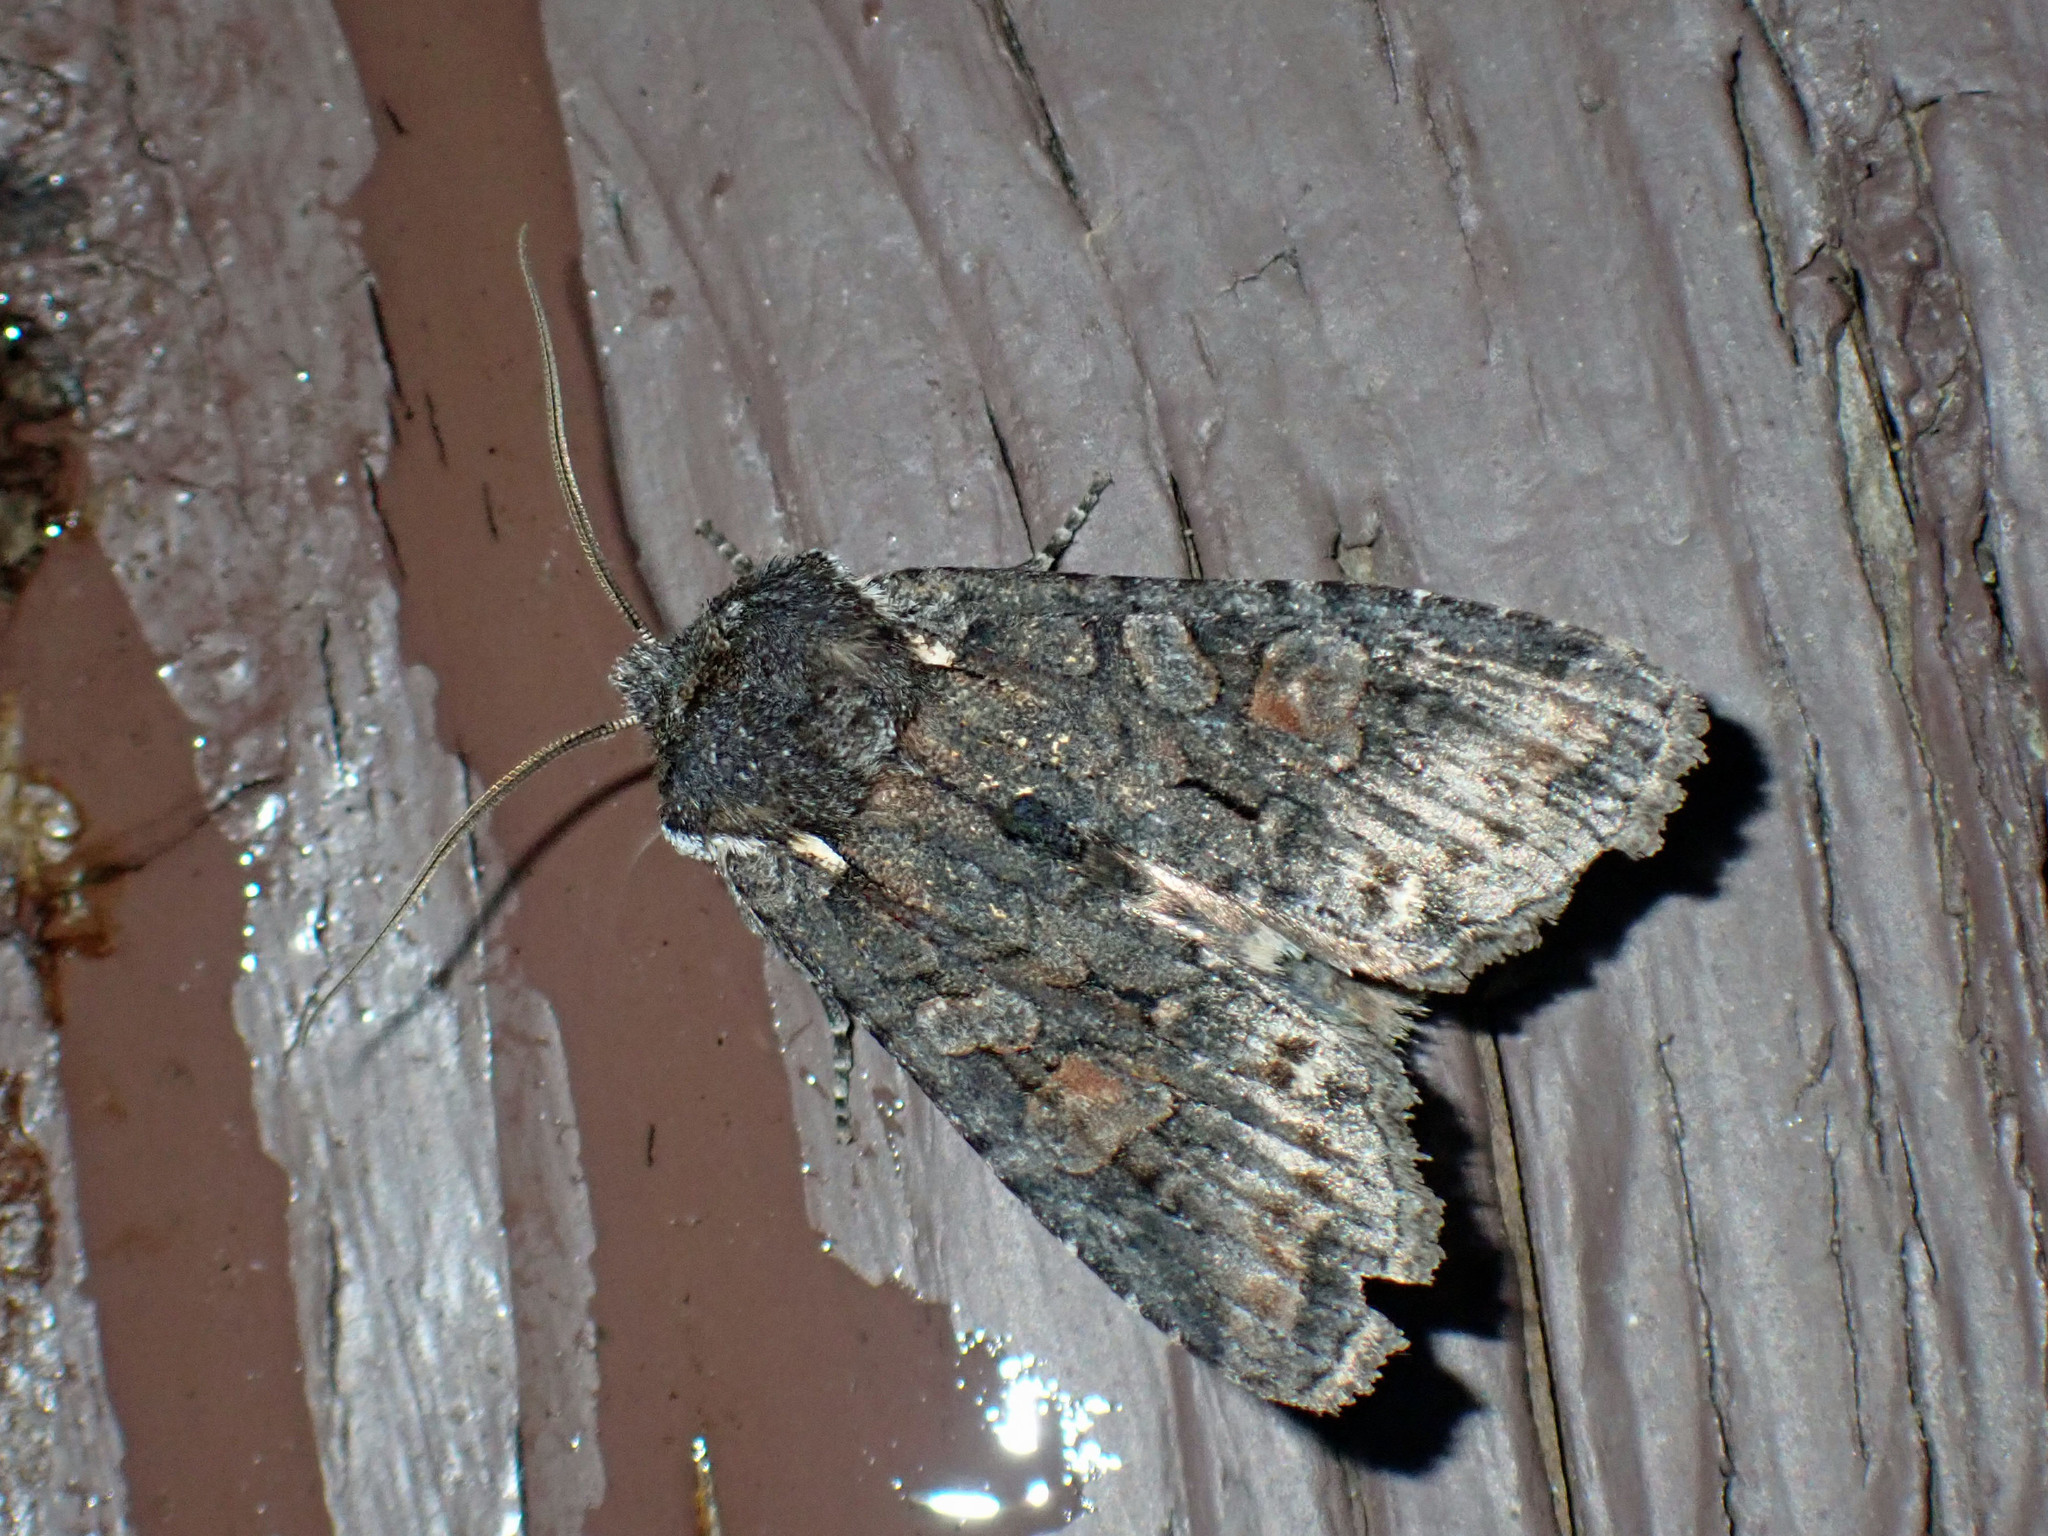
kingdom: Animalia
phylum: Arthropoda
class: Insecta
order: Lepidoptera
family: Noctuidae
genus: Lithophane
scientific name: Lithophane pexata
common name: Plush-naped pinion moth
